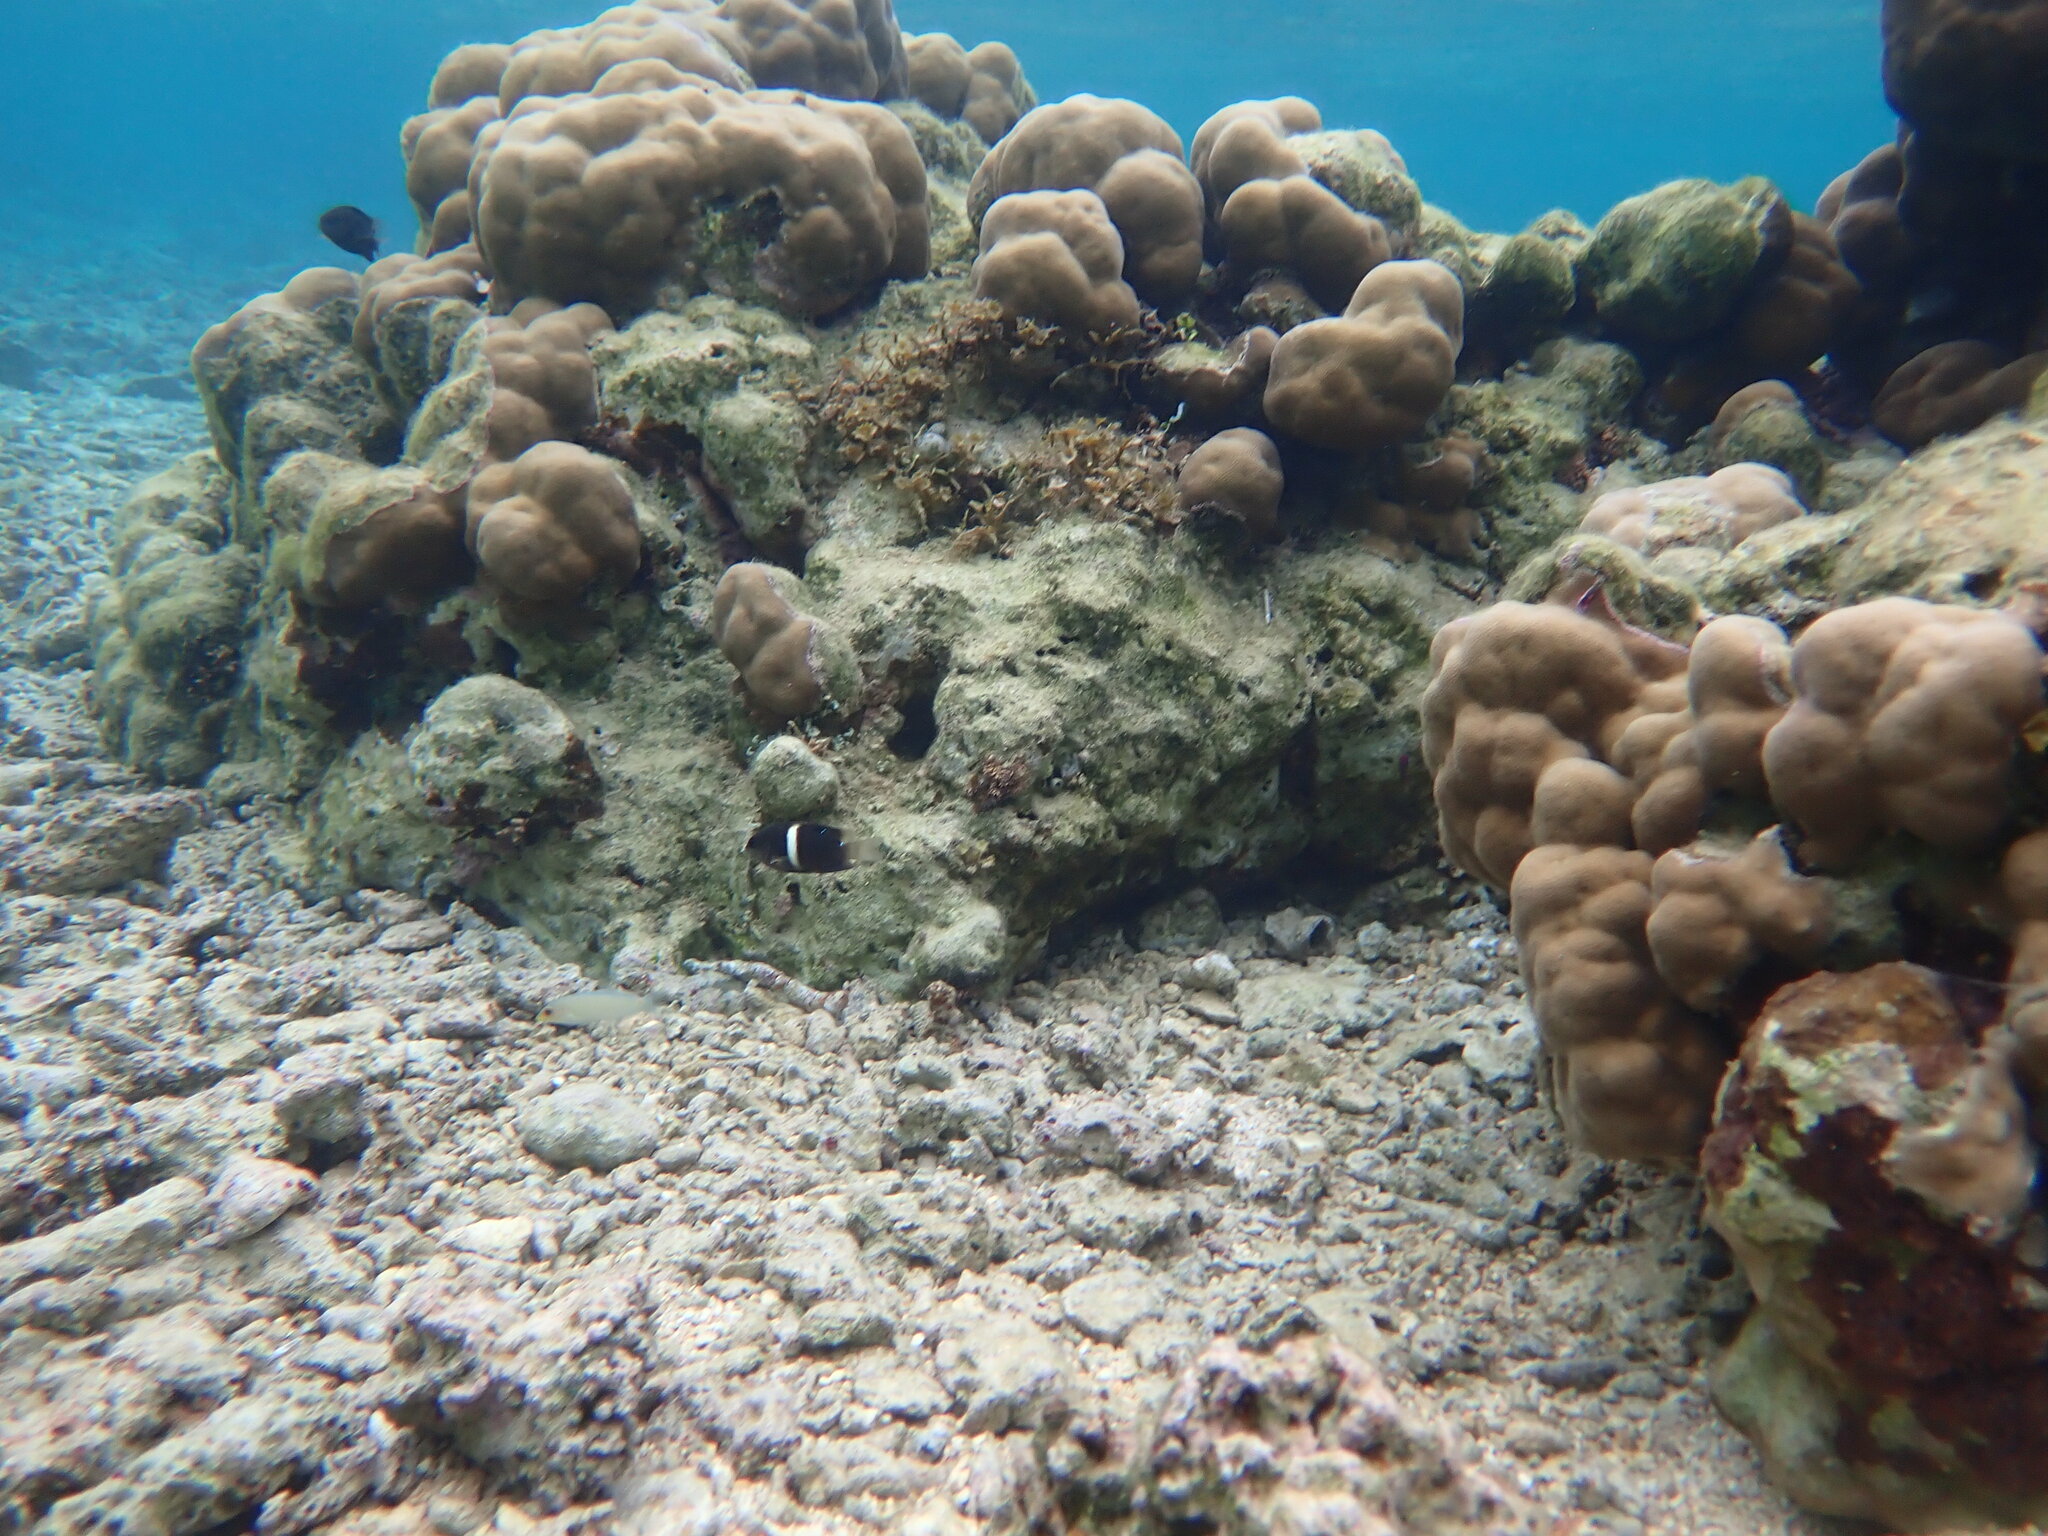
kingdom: Animalia
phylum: Chordata
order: Perciformes
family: Pomacentridae
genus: Chrysiptera
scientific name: Chrysiptera biocellata
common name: Twinspot damselfish
